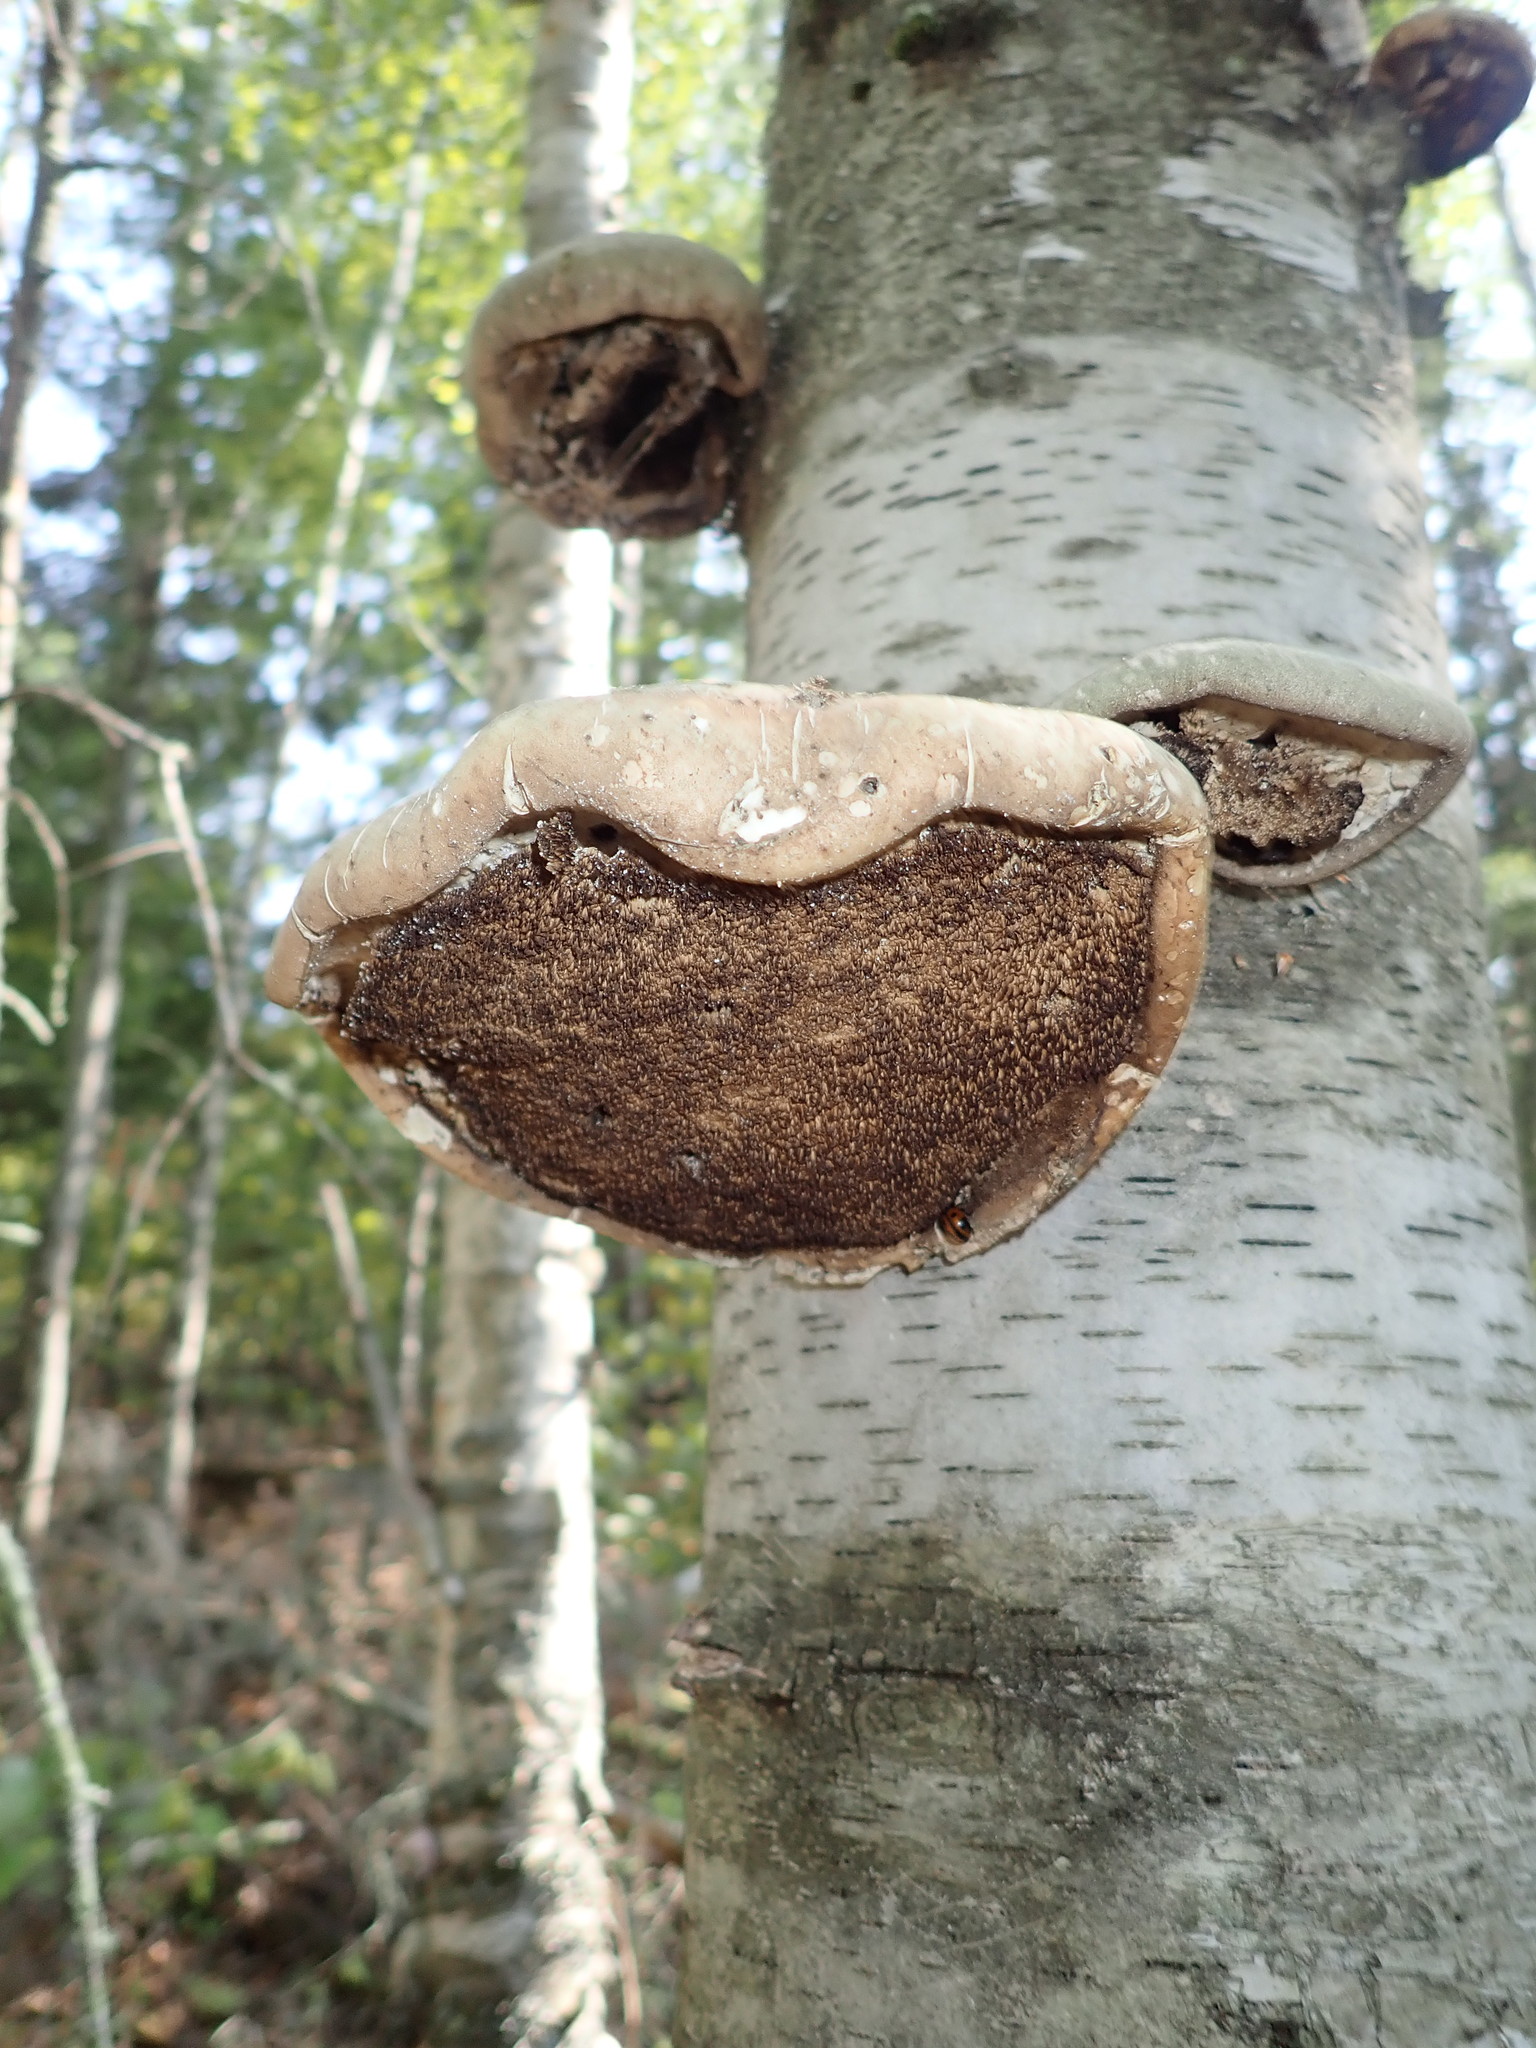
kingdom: Fungi
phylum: Basidiomycota
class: Agaricomycetes
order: Polyporales
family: Fomitopsidaceae
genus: Fomitopsis
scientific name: Fomitopsis betulina
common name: Birch polypore
